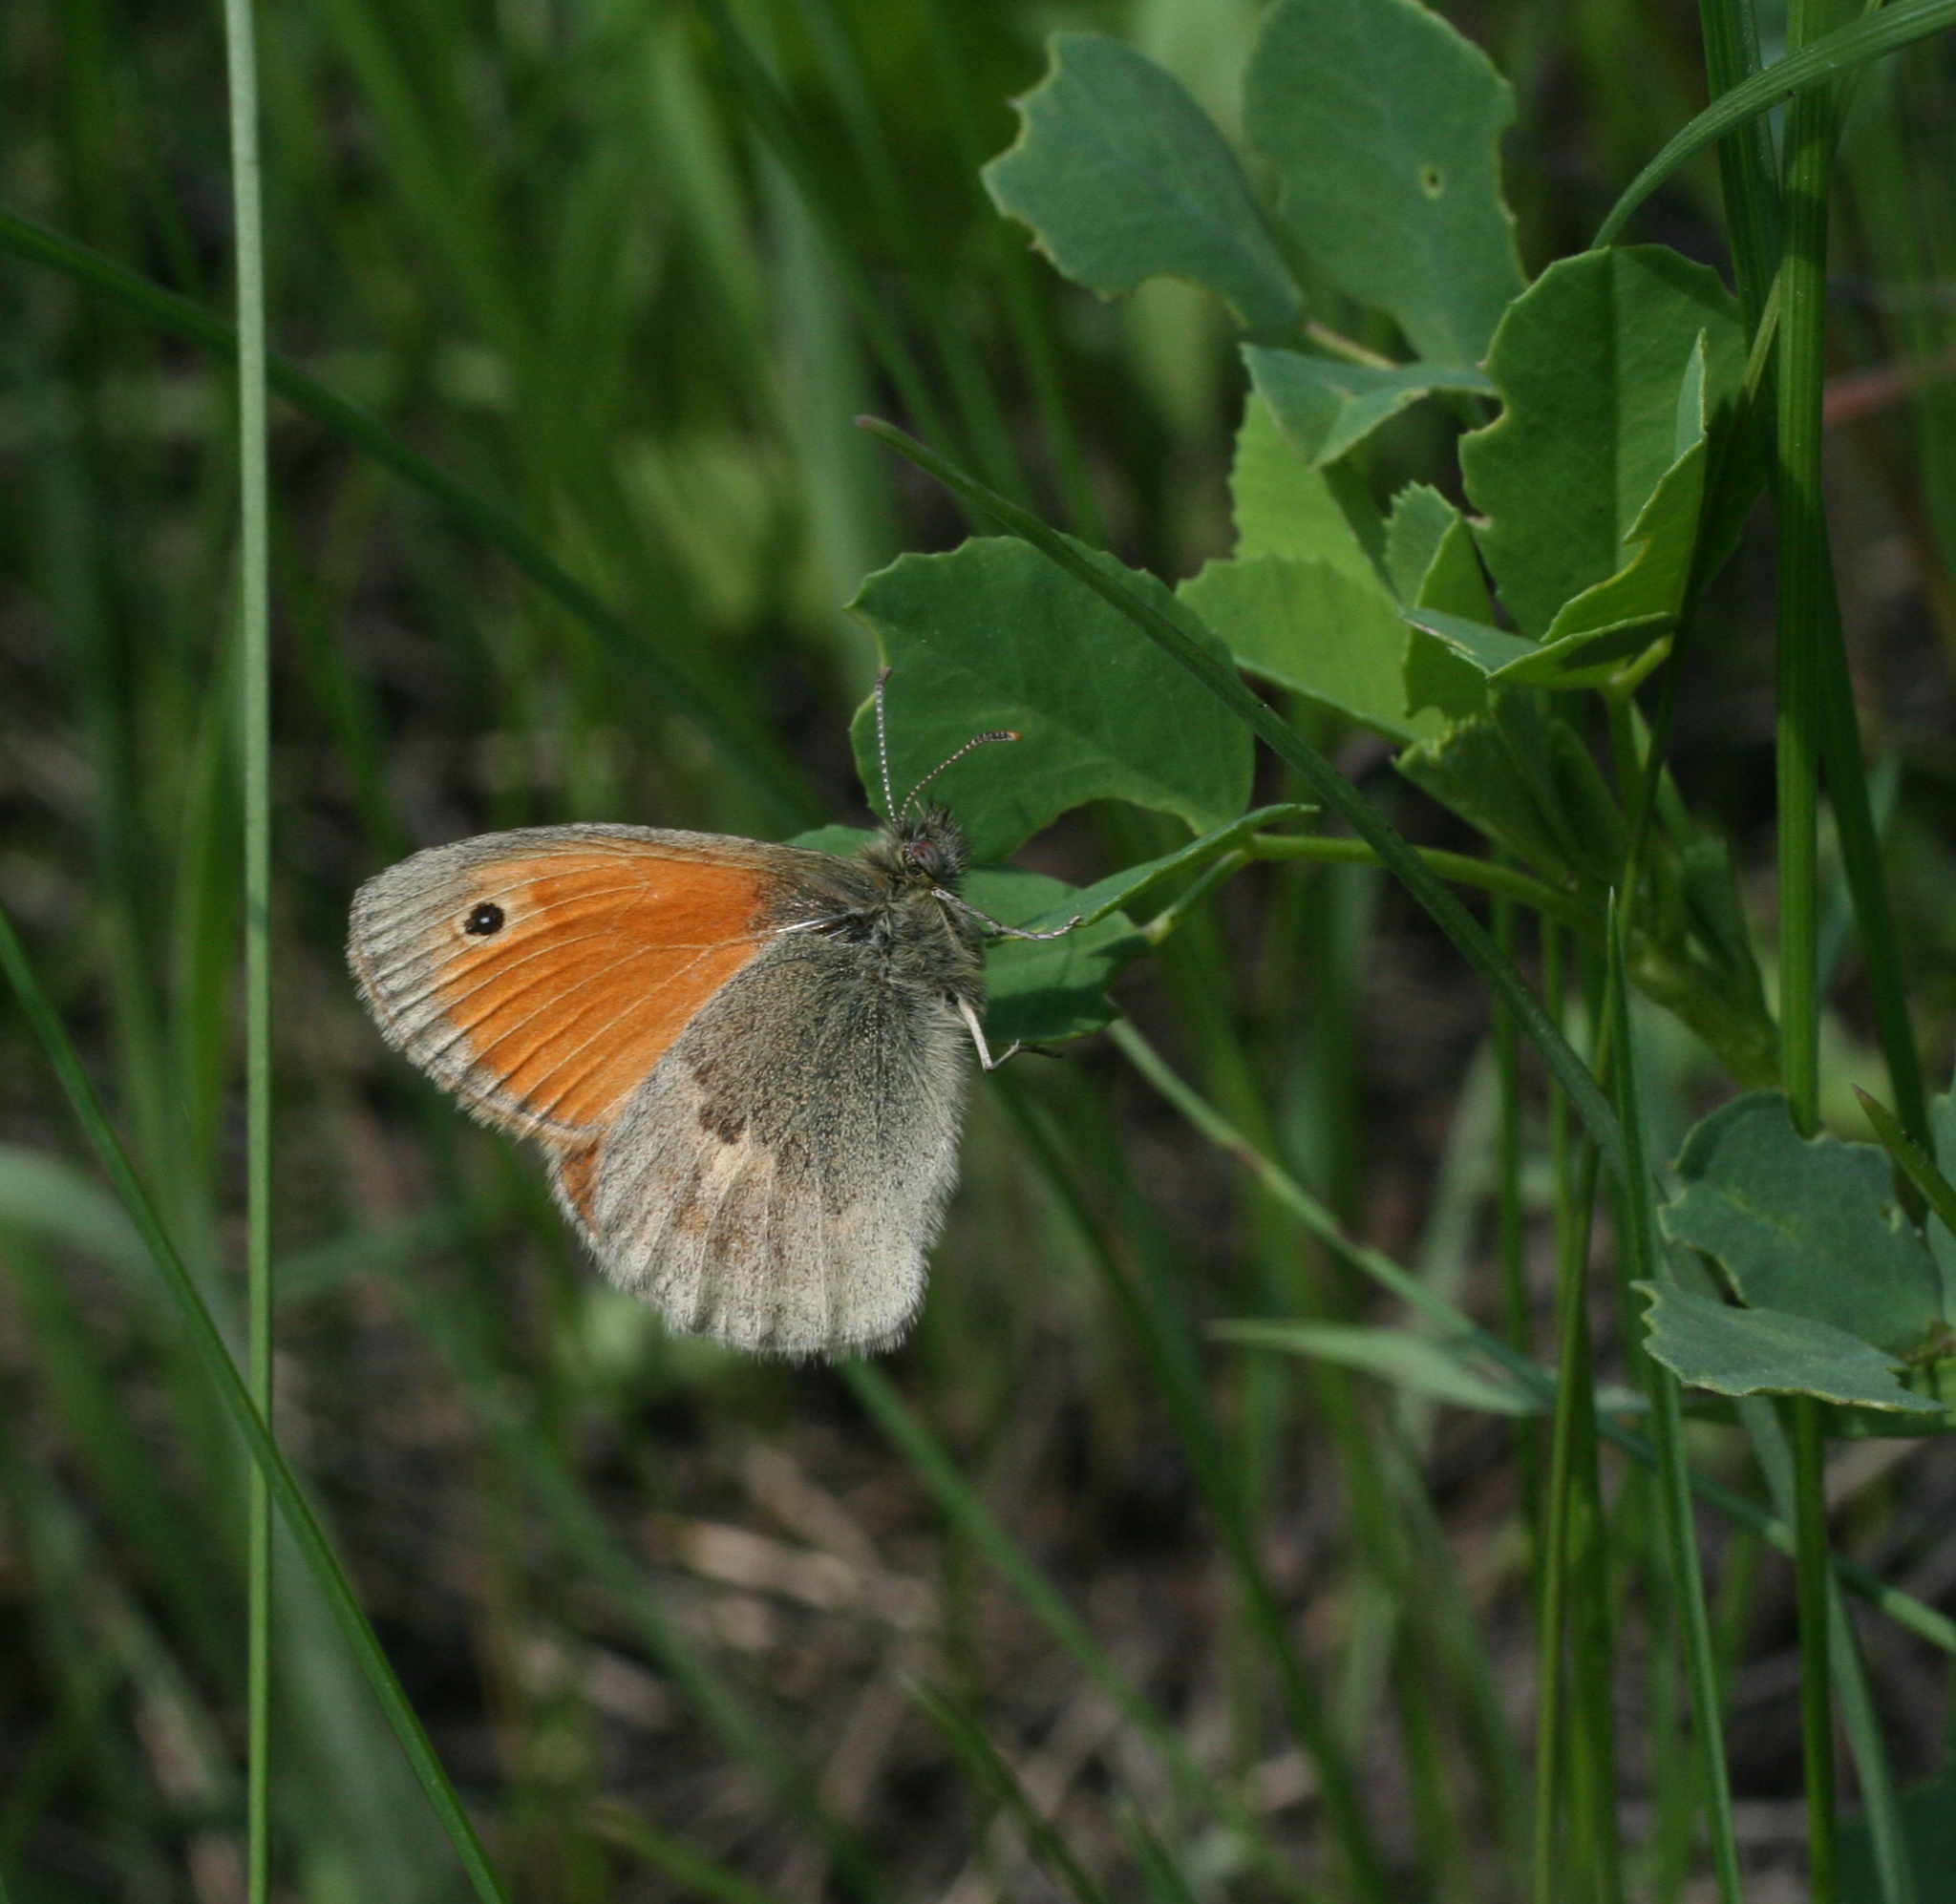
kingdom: Animalia
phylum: Arthropoda
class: Insecta
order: Lepidoptera
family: Nymphalidae
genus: Coenonympha
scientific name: Coenonympha pamphilus
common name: Small heath
